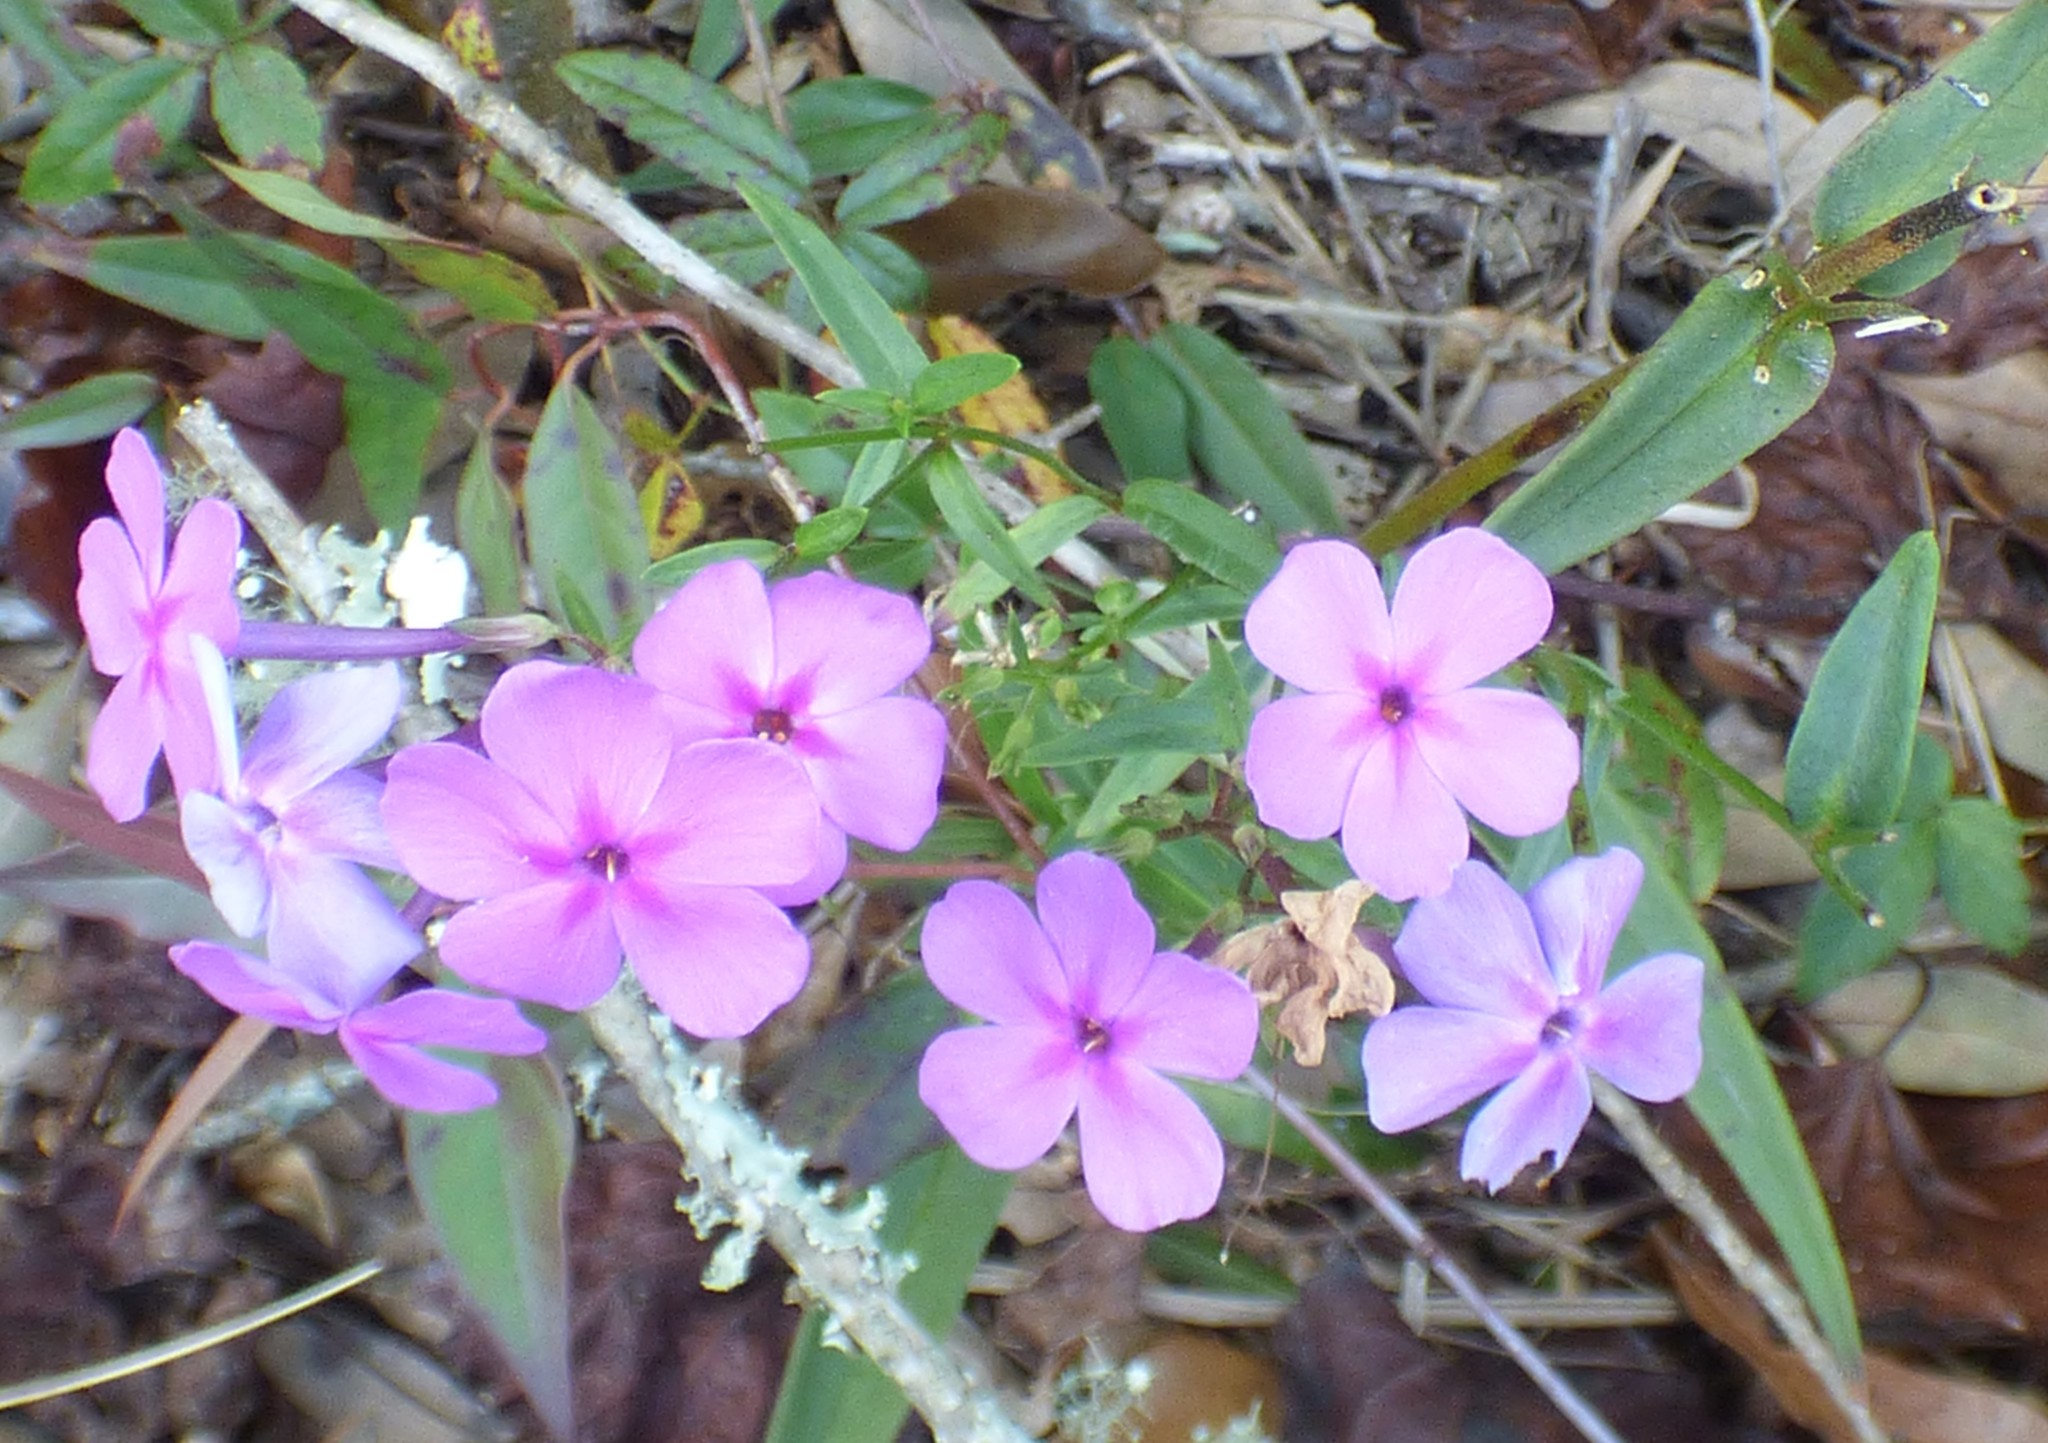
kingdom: Plantae
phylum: Tracheophyta
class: Magnoliopsida
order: Ericales
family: Polemoniaceae
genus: Phlox
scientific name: Phlox carolina
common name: Thick-leaf phlox
